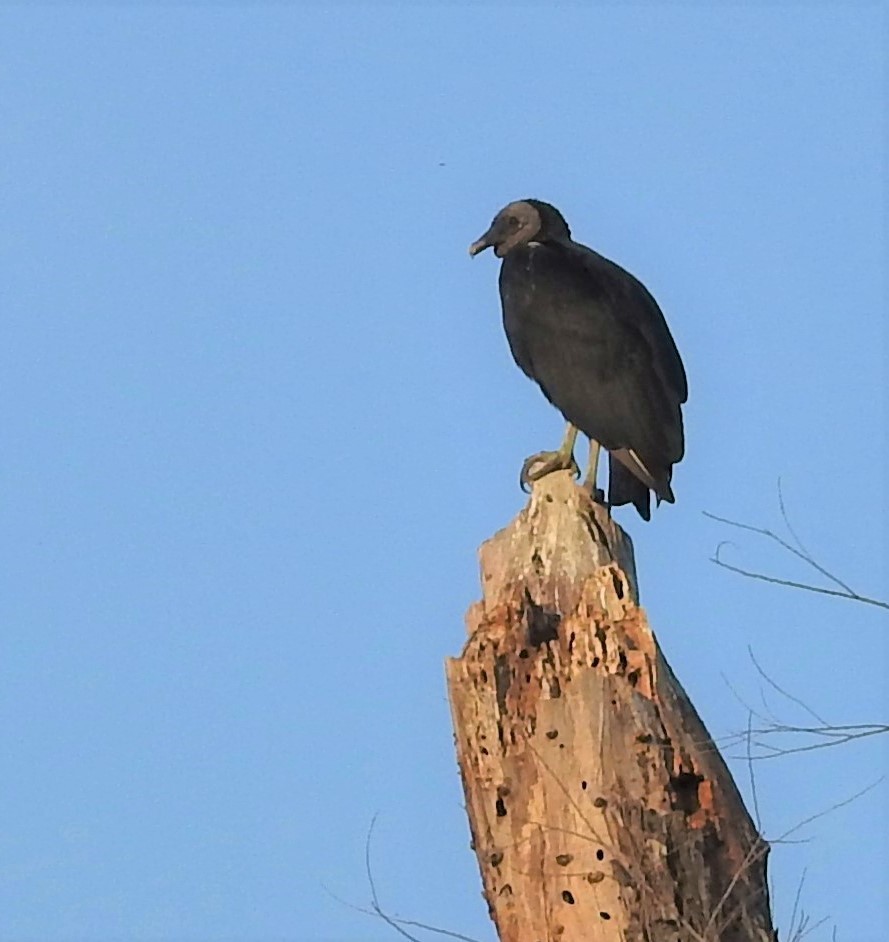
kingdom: Animalia
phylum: Chordata
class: Aves
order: Accipitriformes
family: Cathartidae
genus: Coragyps
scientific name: Coragyps atratus
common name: Black vulture
